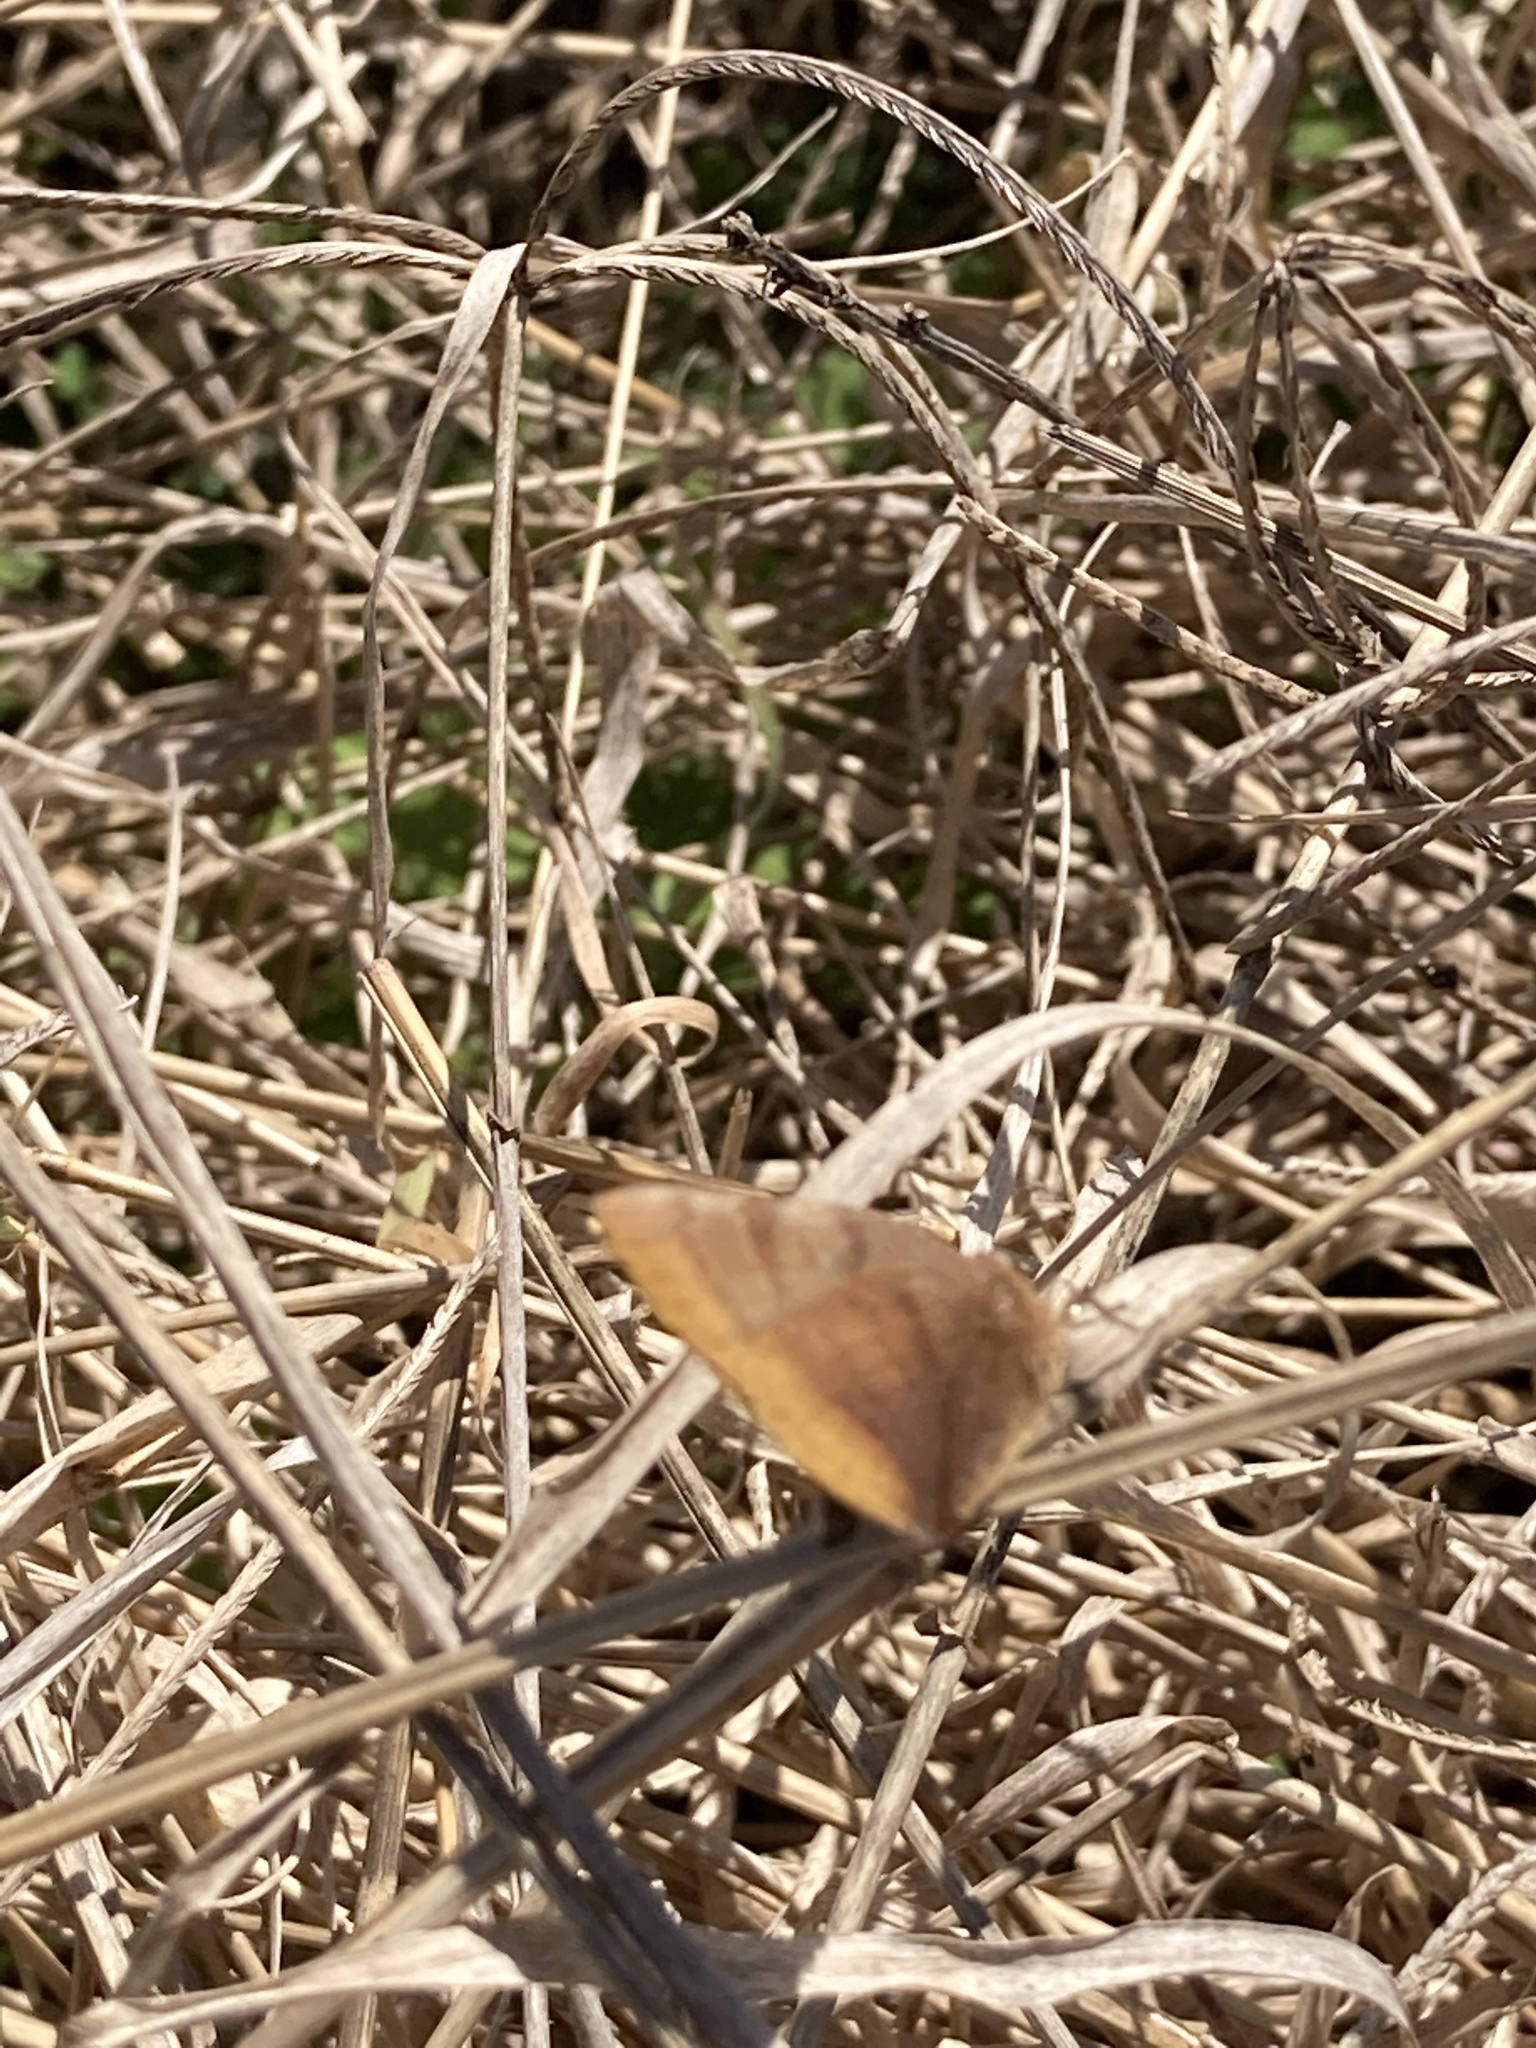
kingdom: Animalia
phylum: Arthropoda
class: Insecta
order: Lepidoptera
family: Lycaenidae
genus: Thecla
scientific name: Thecla marius
